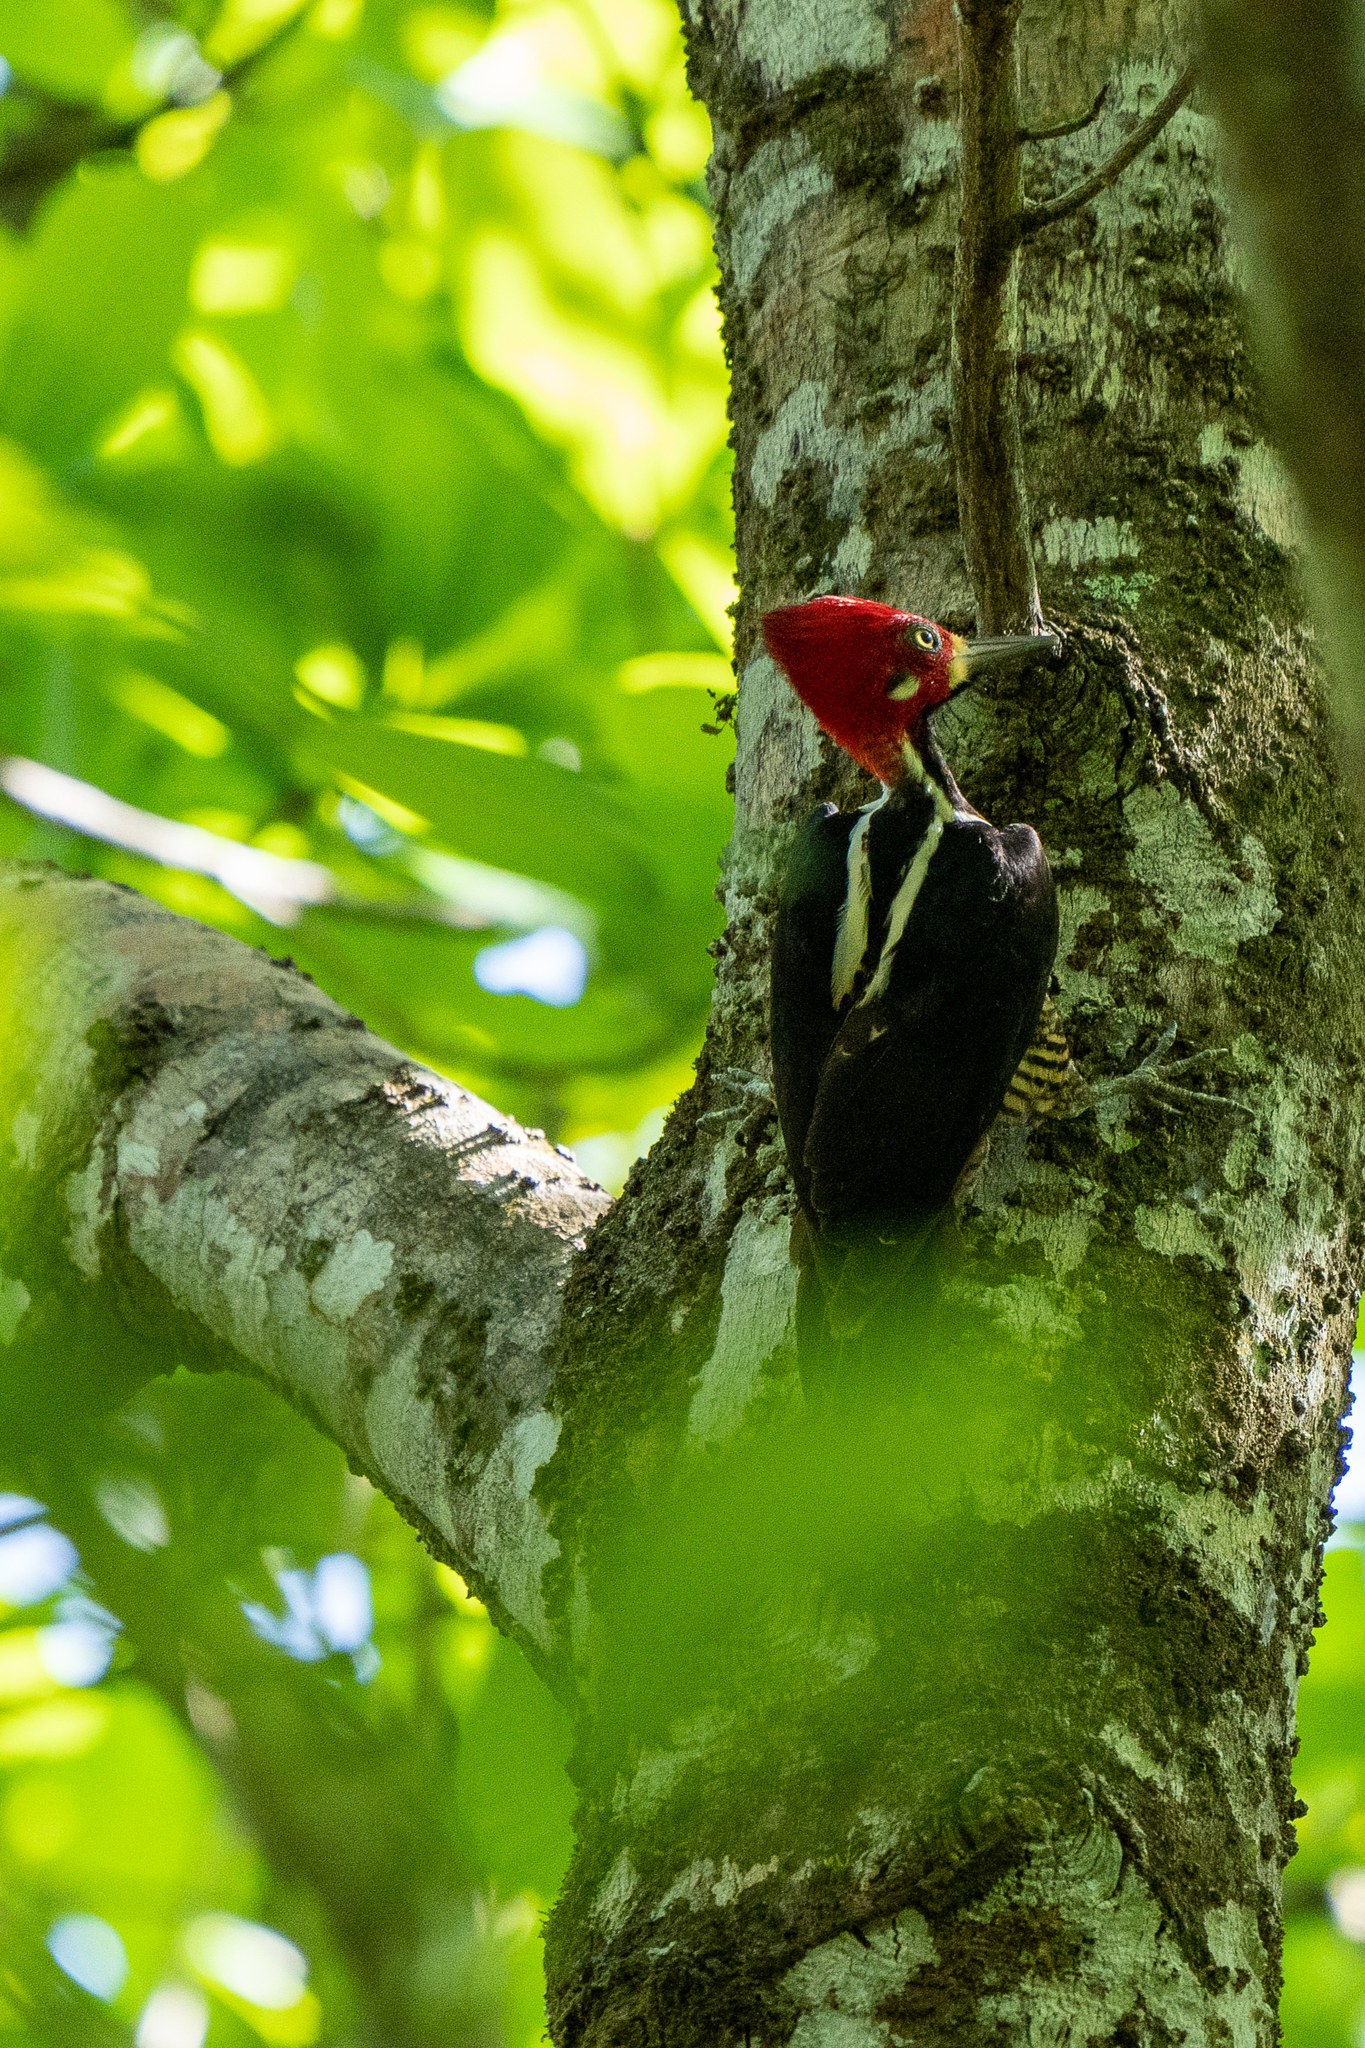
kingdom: Animalia
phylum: Chordata
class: Aves
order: Piciformes
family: Picidae
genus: Campephilus
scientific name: Campephilus melanoleucos
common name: Crimson-crested woodpecker
